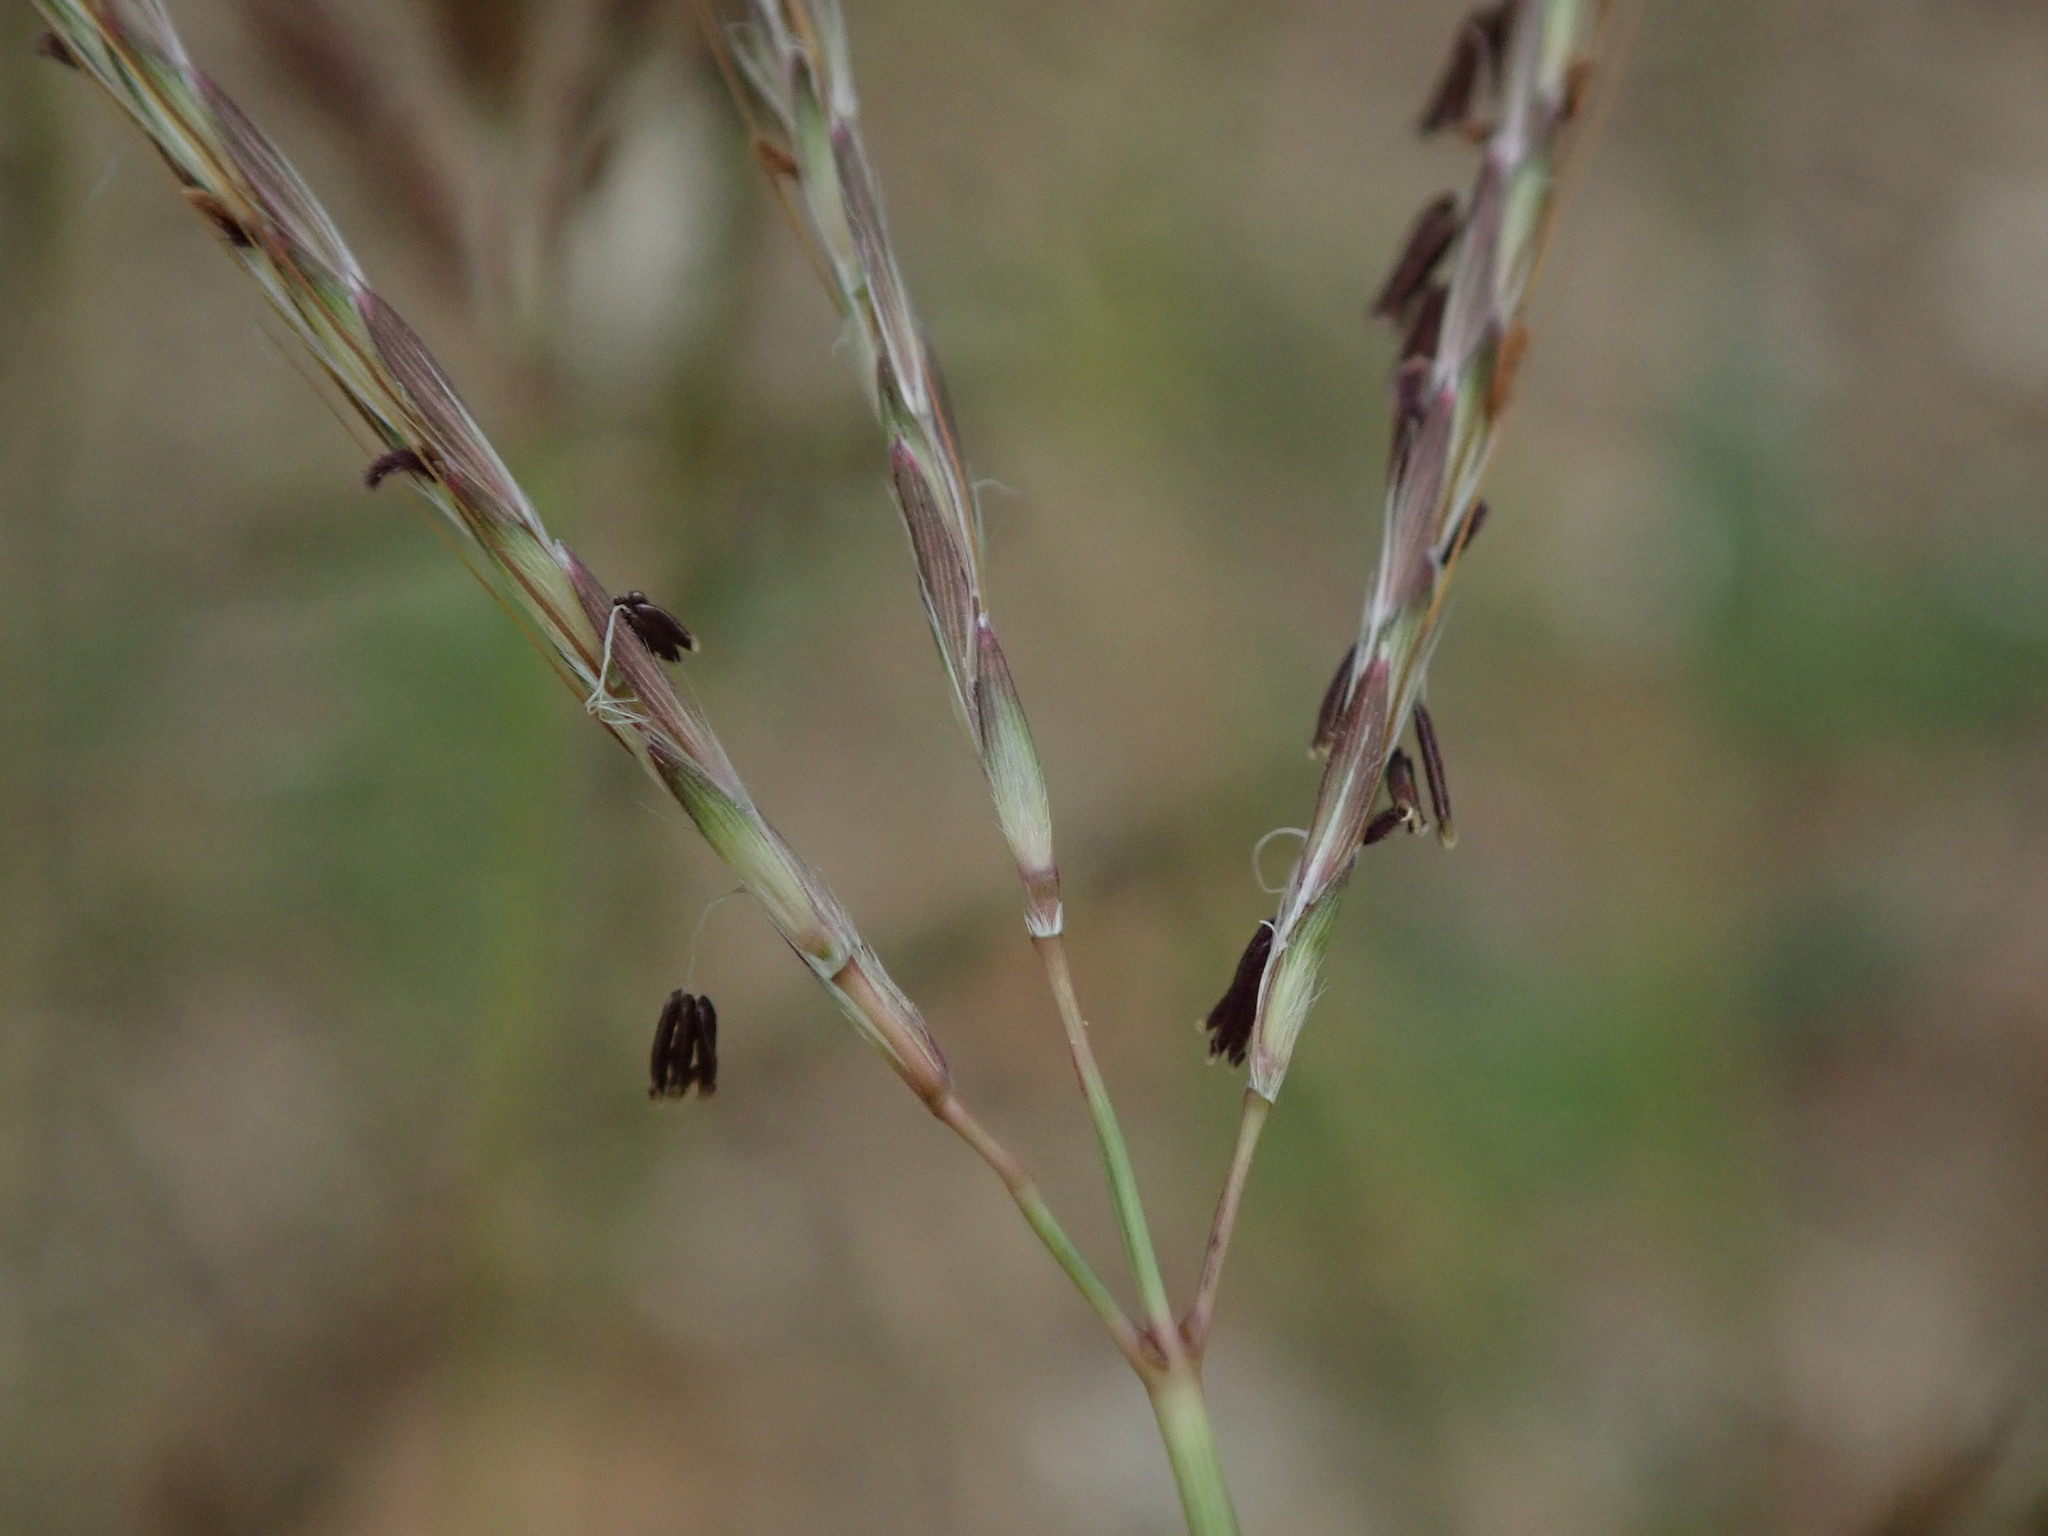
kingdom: Plantae
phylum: Tracheophyta
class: Liliopsida
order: Poales
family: Poaceae
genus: Bothriochloa
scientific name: Bothriochloa ischaemum
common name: Yellow bluestem
